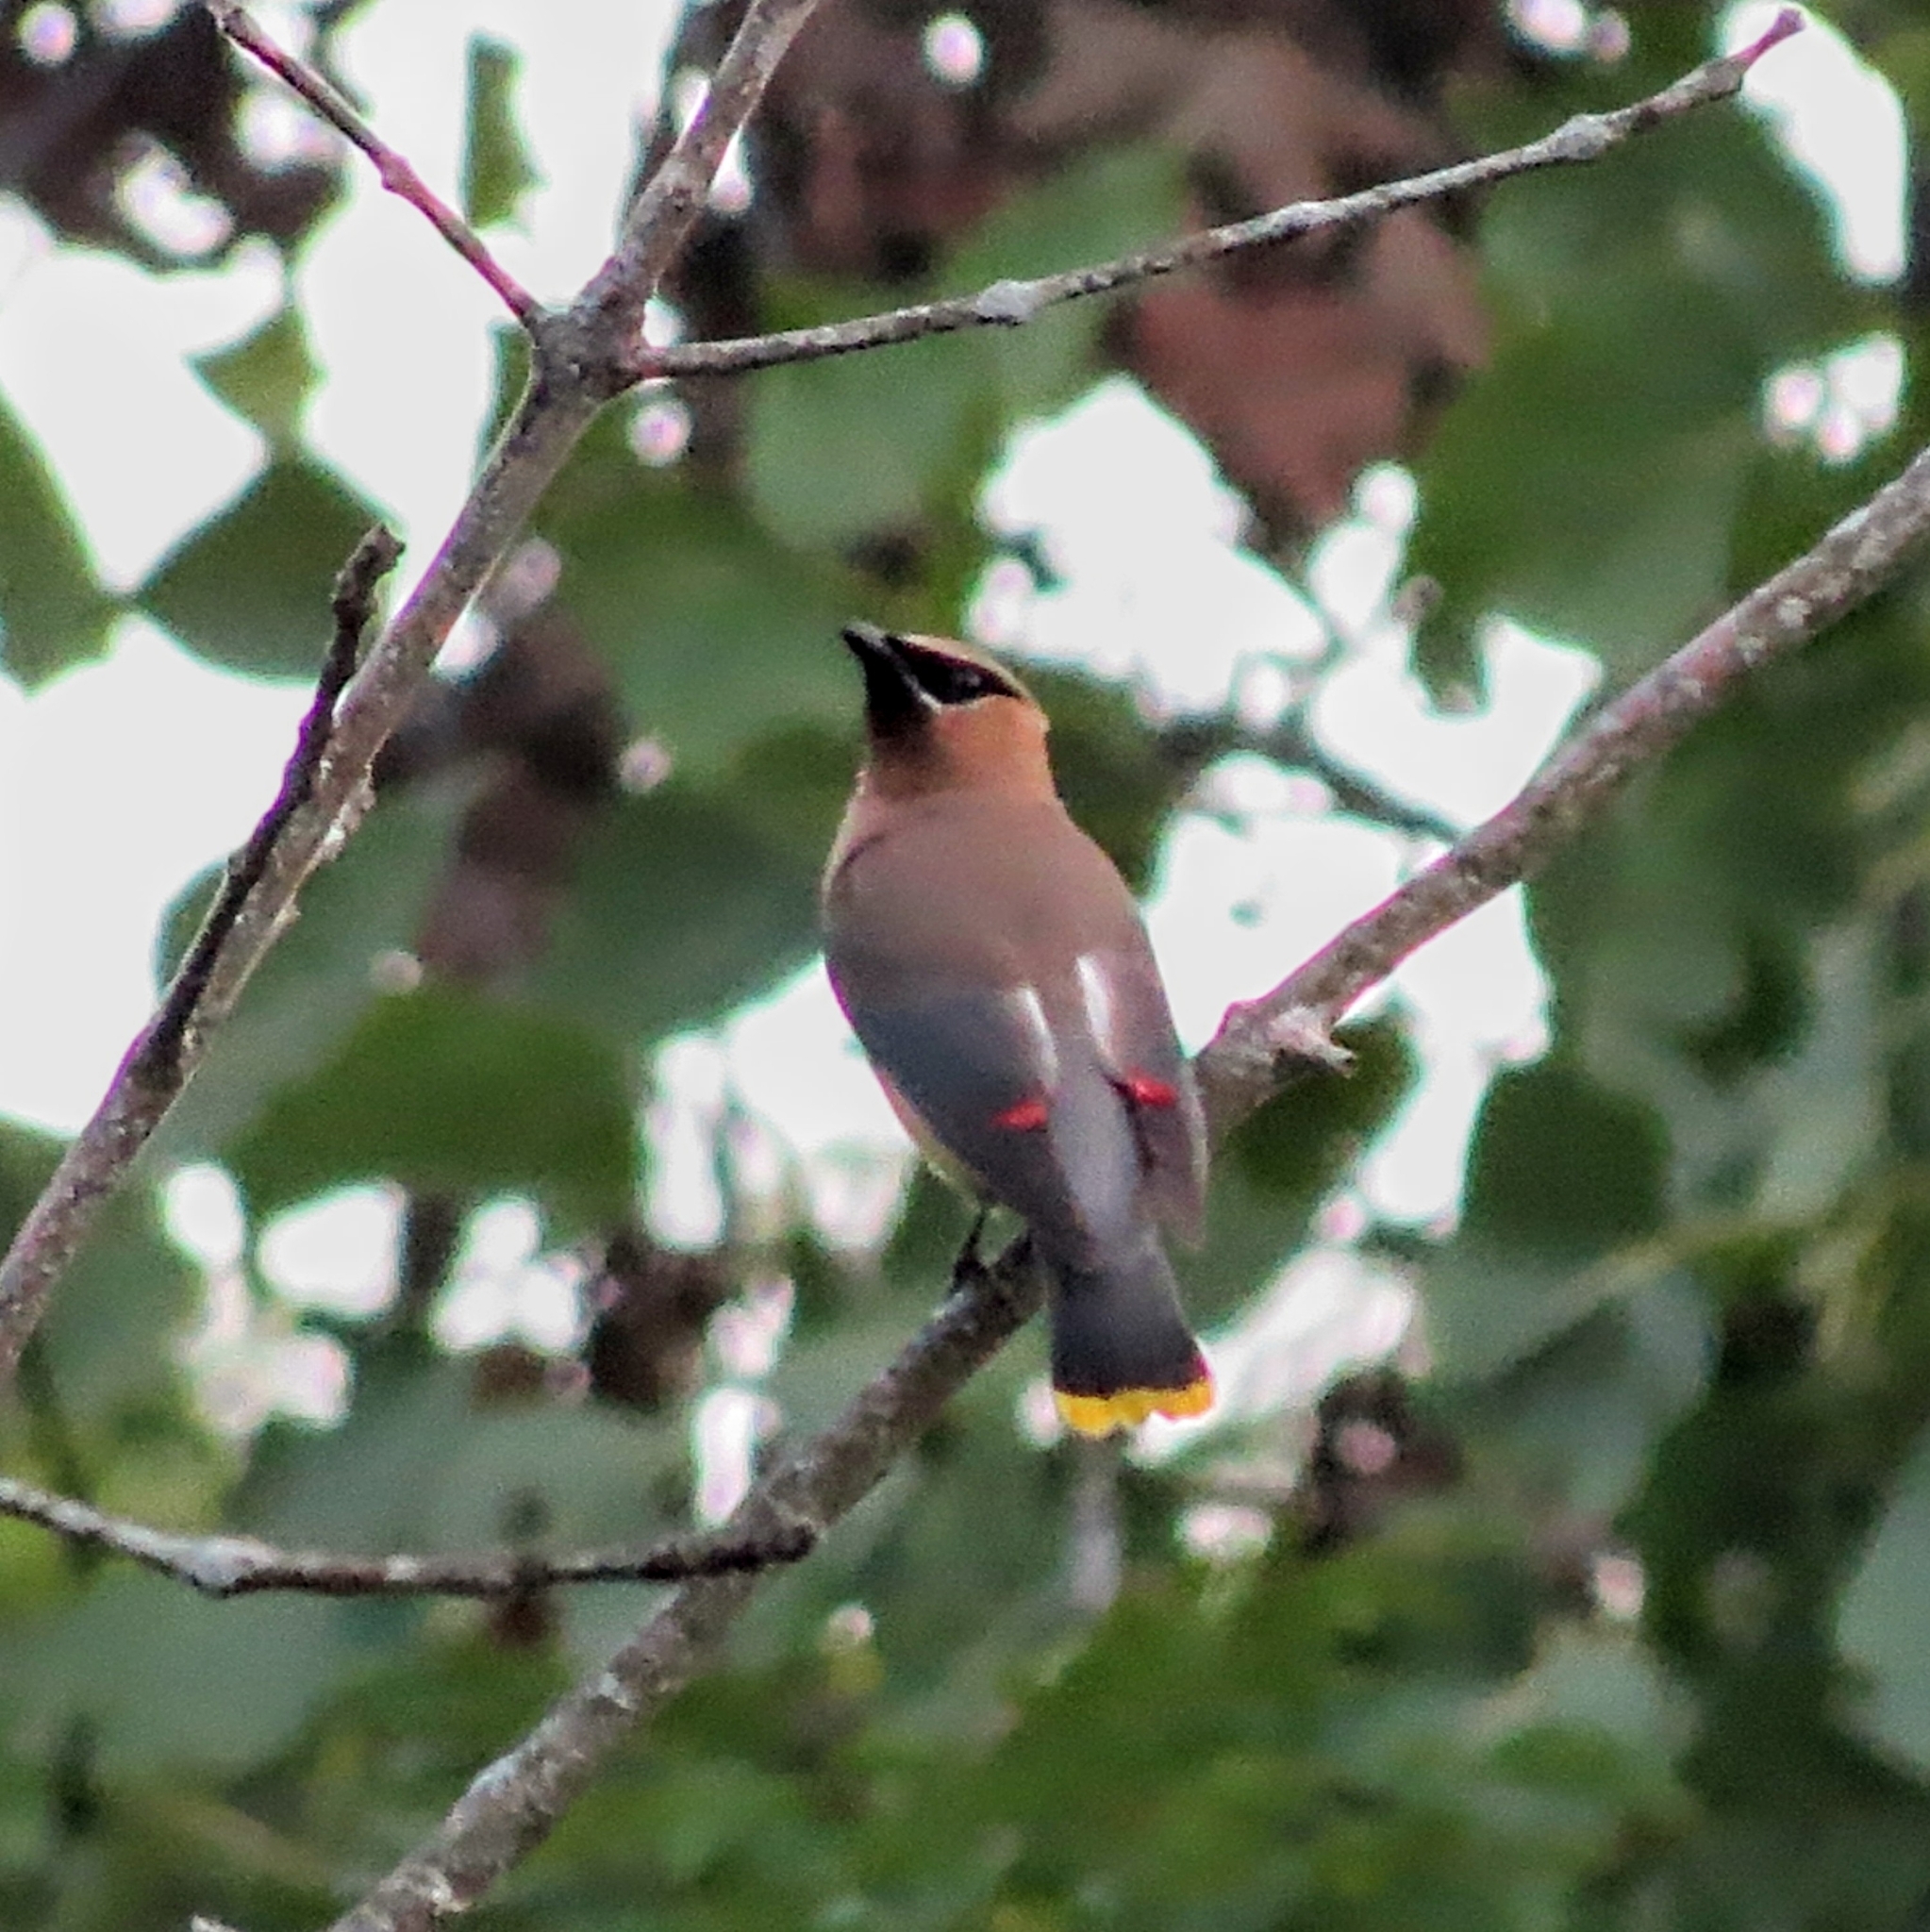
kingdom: Animalia
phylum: Chordata
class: Aves
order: Passeriformes
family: Bombycillidae
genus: Bombycilla
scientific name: Bombycilla cedrorum
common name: Cedar waxwing
